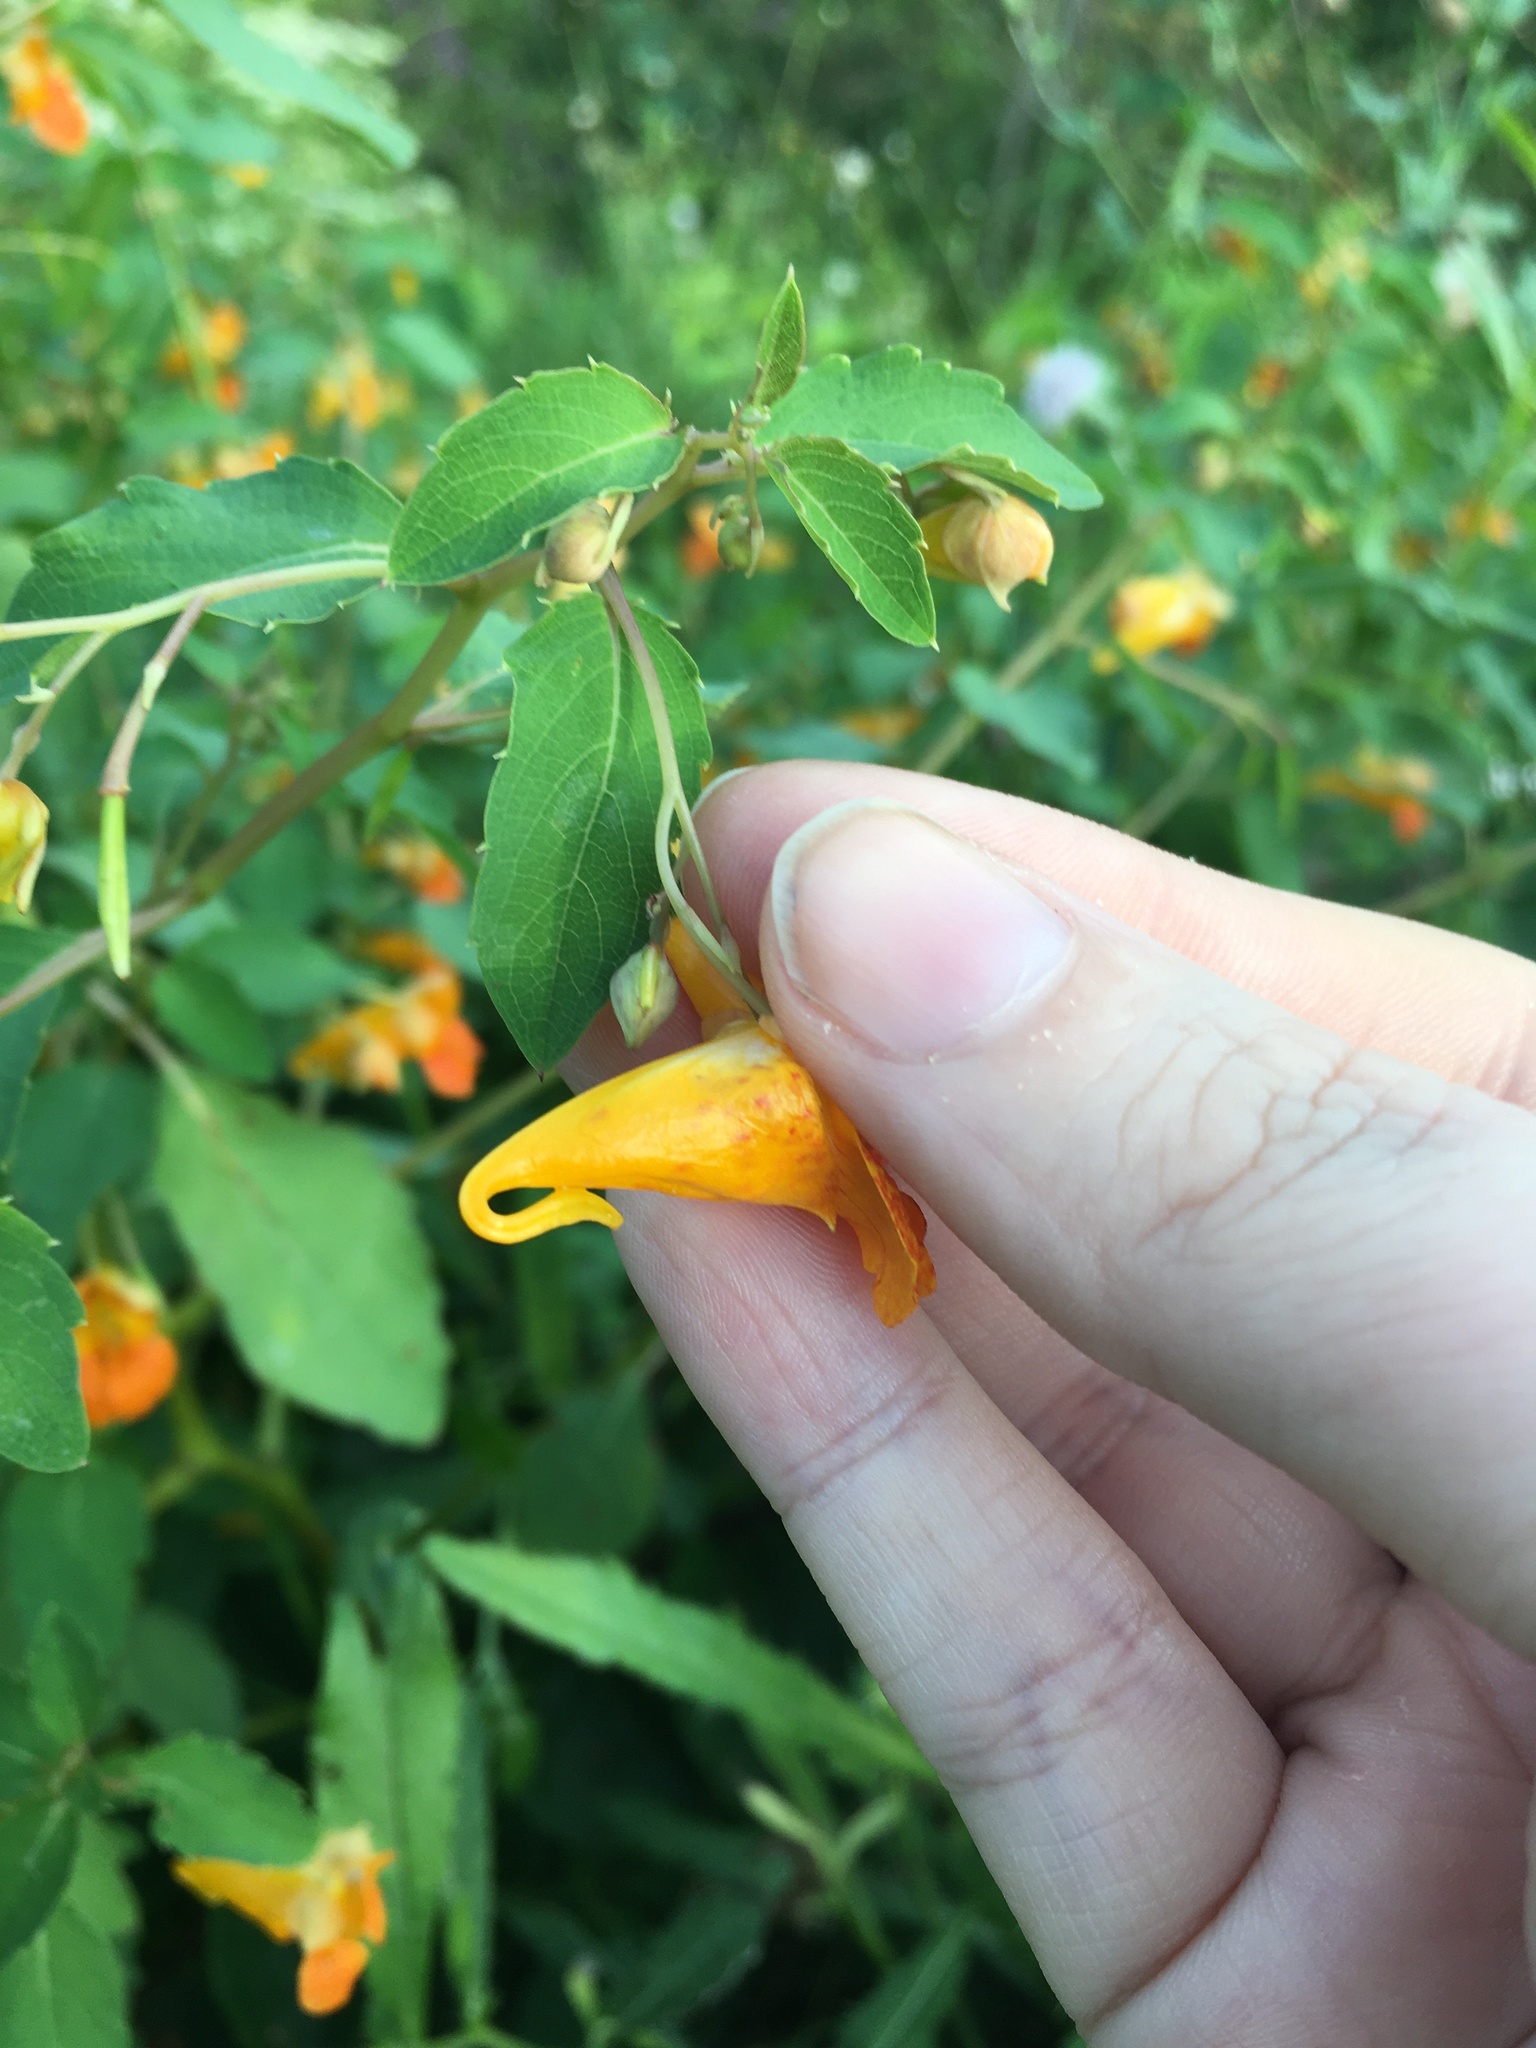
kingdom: Plantae
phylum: Tracheophyta
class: Magnoliopsida
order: Ericales
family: Balsaminaceae
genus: Impatiens
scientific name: Impatiens capensis
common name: Orange balsam
